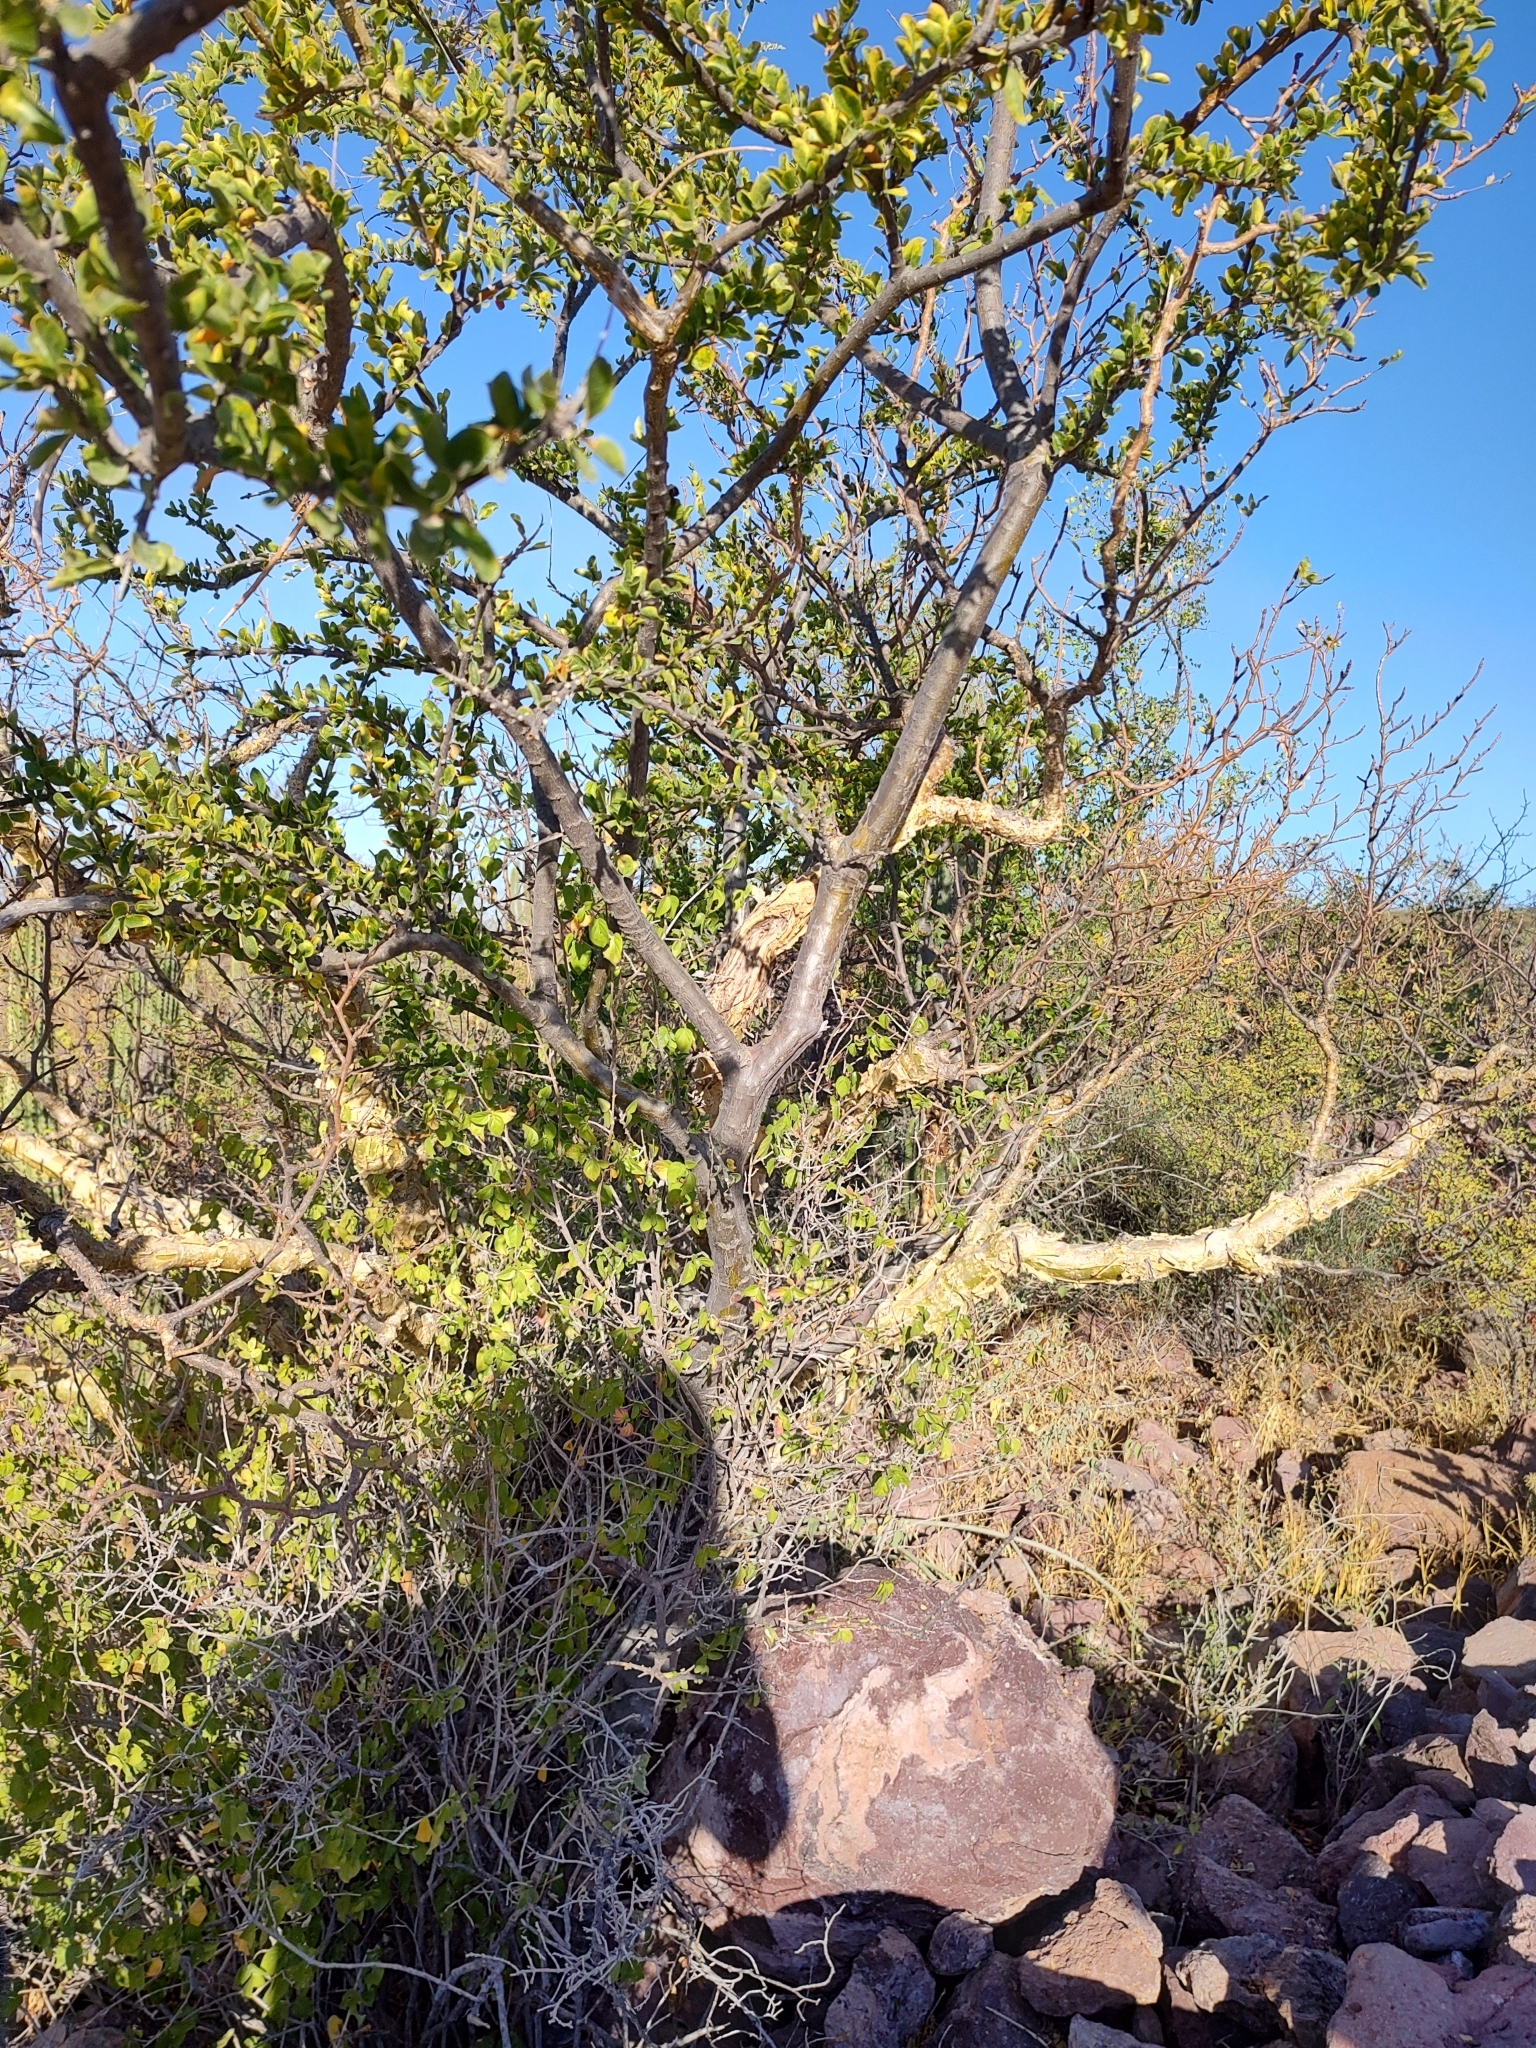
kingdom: Plantae
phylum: Tracheophyta
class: Magnoliopsida
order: Malpighiales
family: Euphorbiaceae
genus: Adelia
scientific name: Adelia brandegeei
